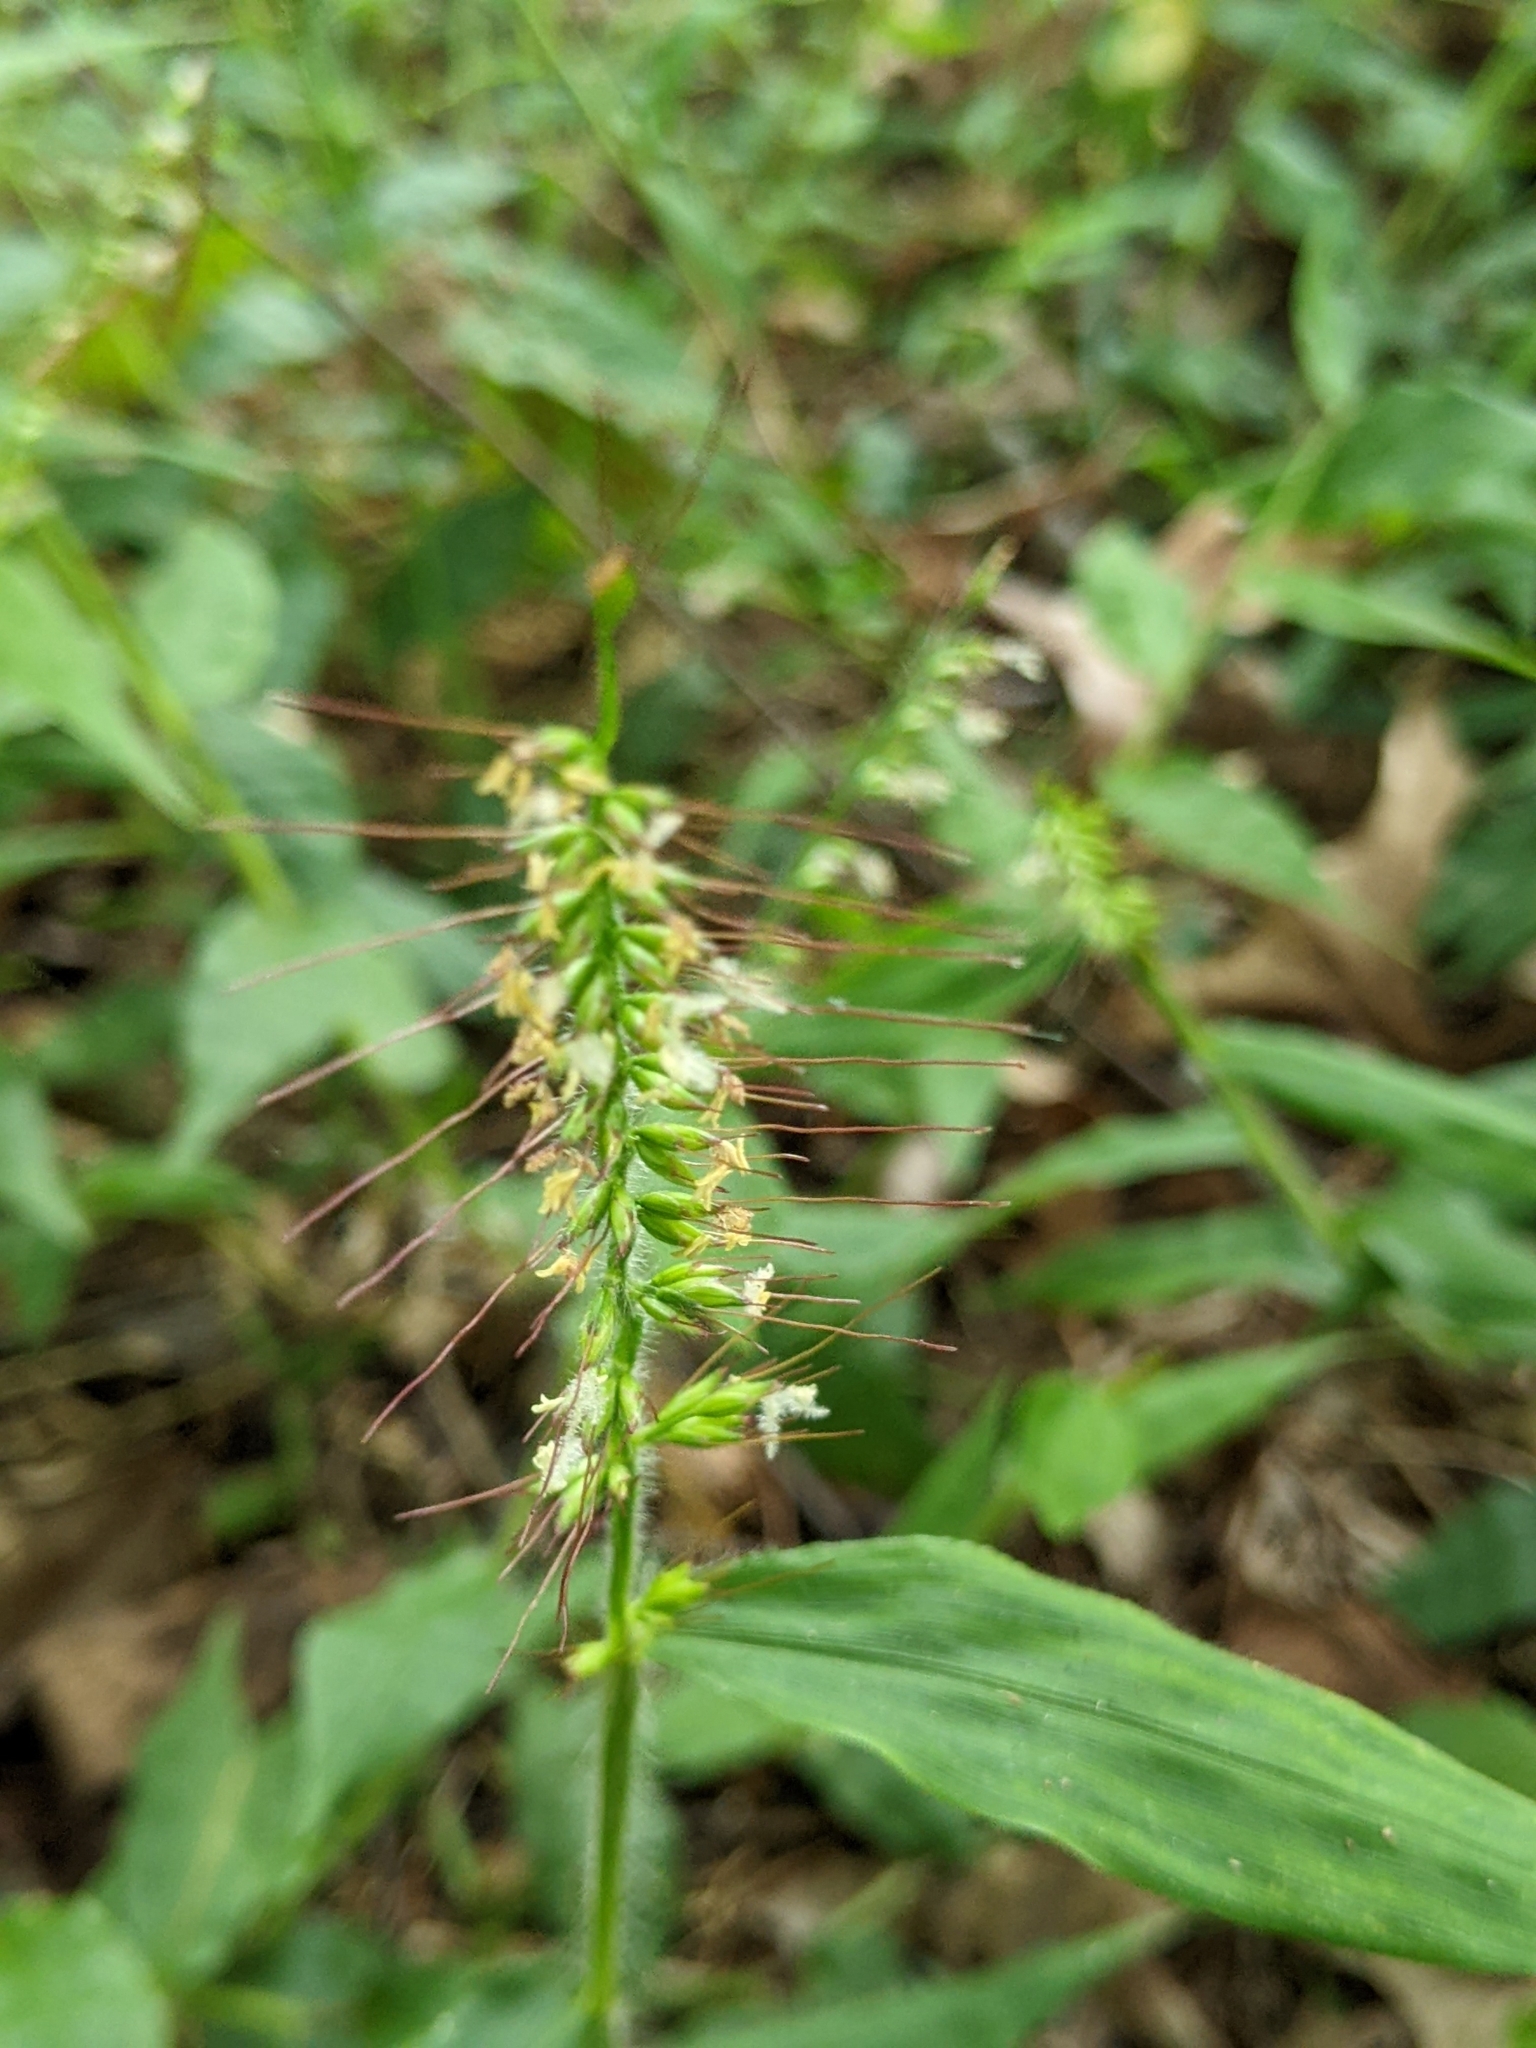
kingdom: Plantae
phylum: Tracheophyta
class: Liliopsida
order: Poales
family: Poaceae
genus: Oplismenus
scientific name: Oplismenus undulatifolius
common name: Wavyleaf basketgrass
